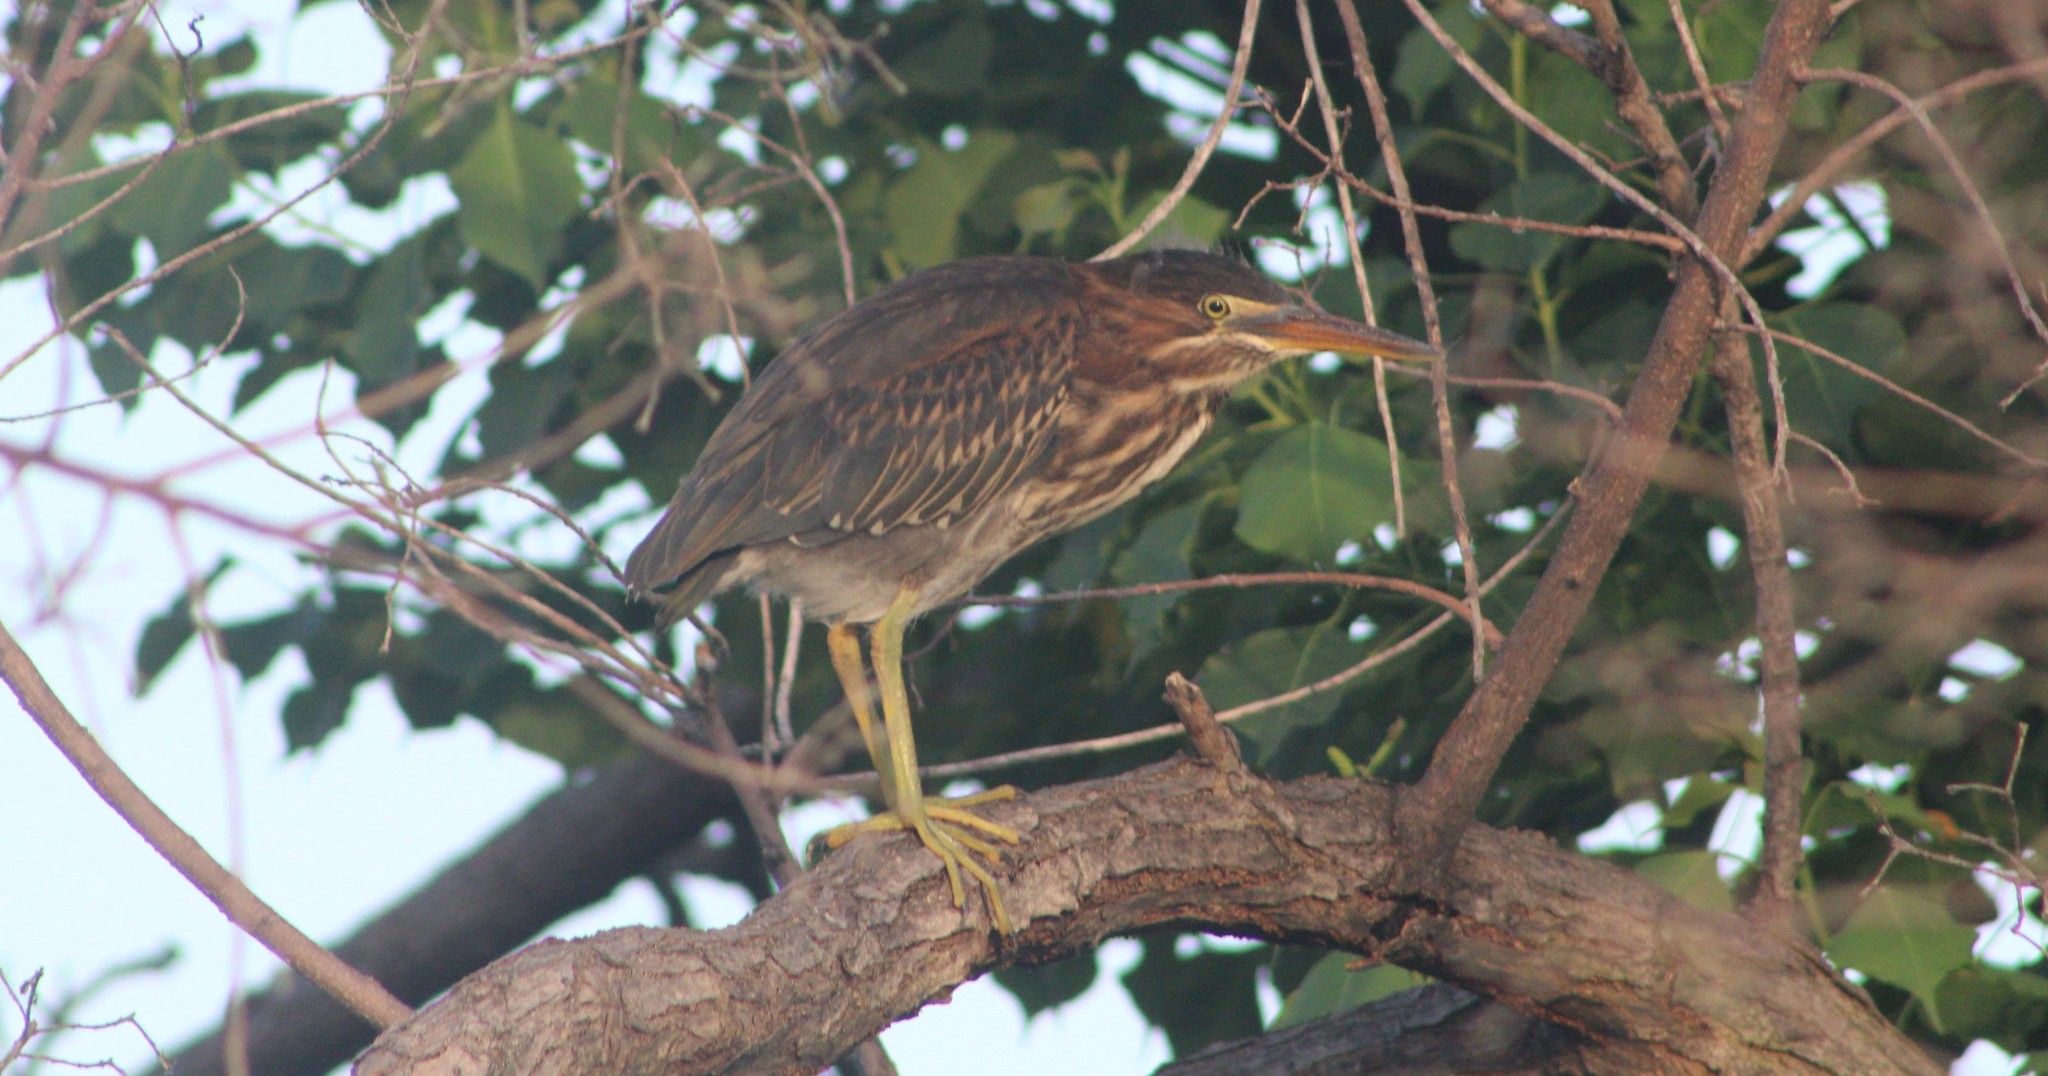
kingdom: Animalia
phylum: Chordata
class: Aves
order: Pelecaniformes
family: Ardeidae
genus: Butorides
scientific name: Butorides virescens
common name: Green heron
